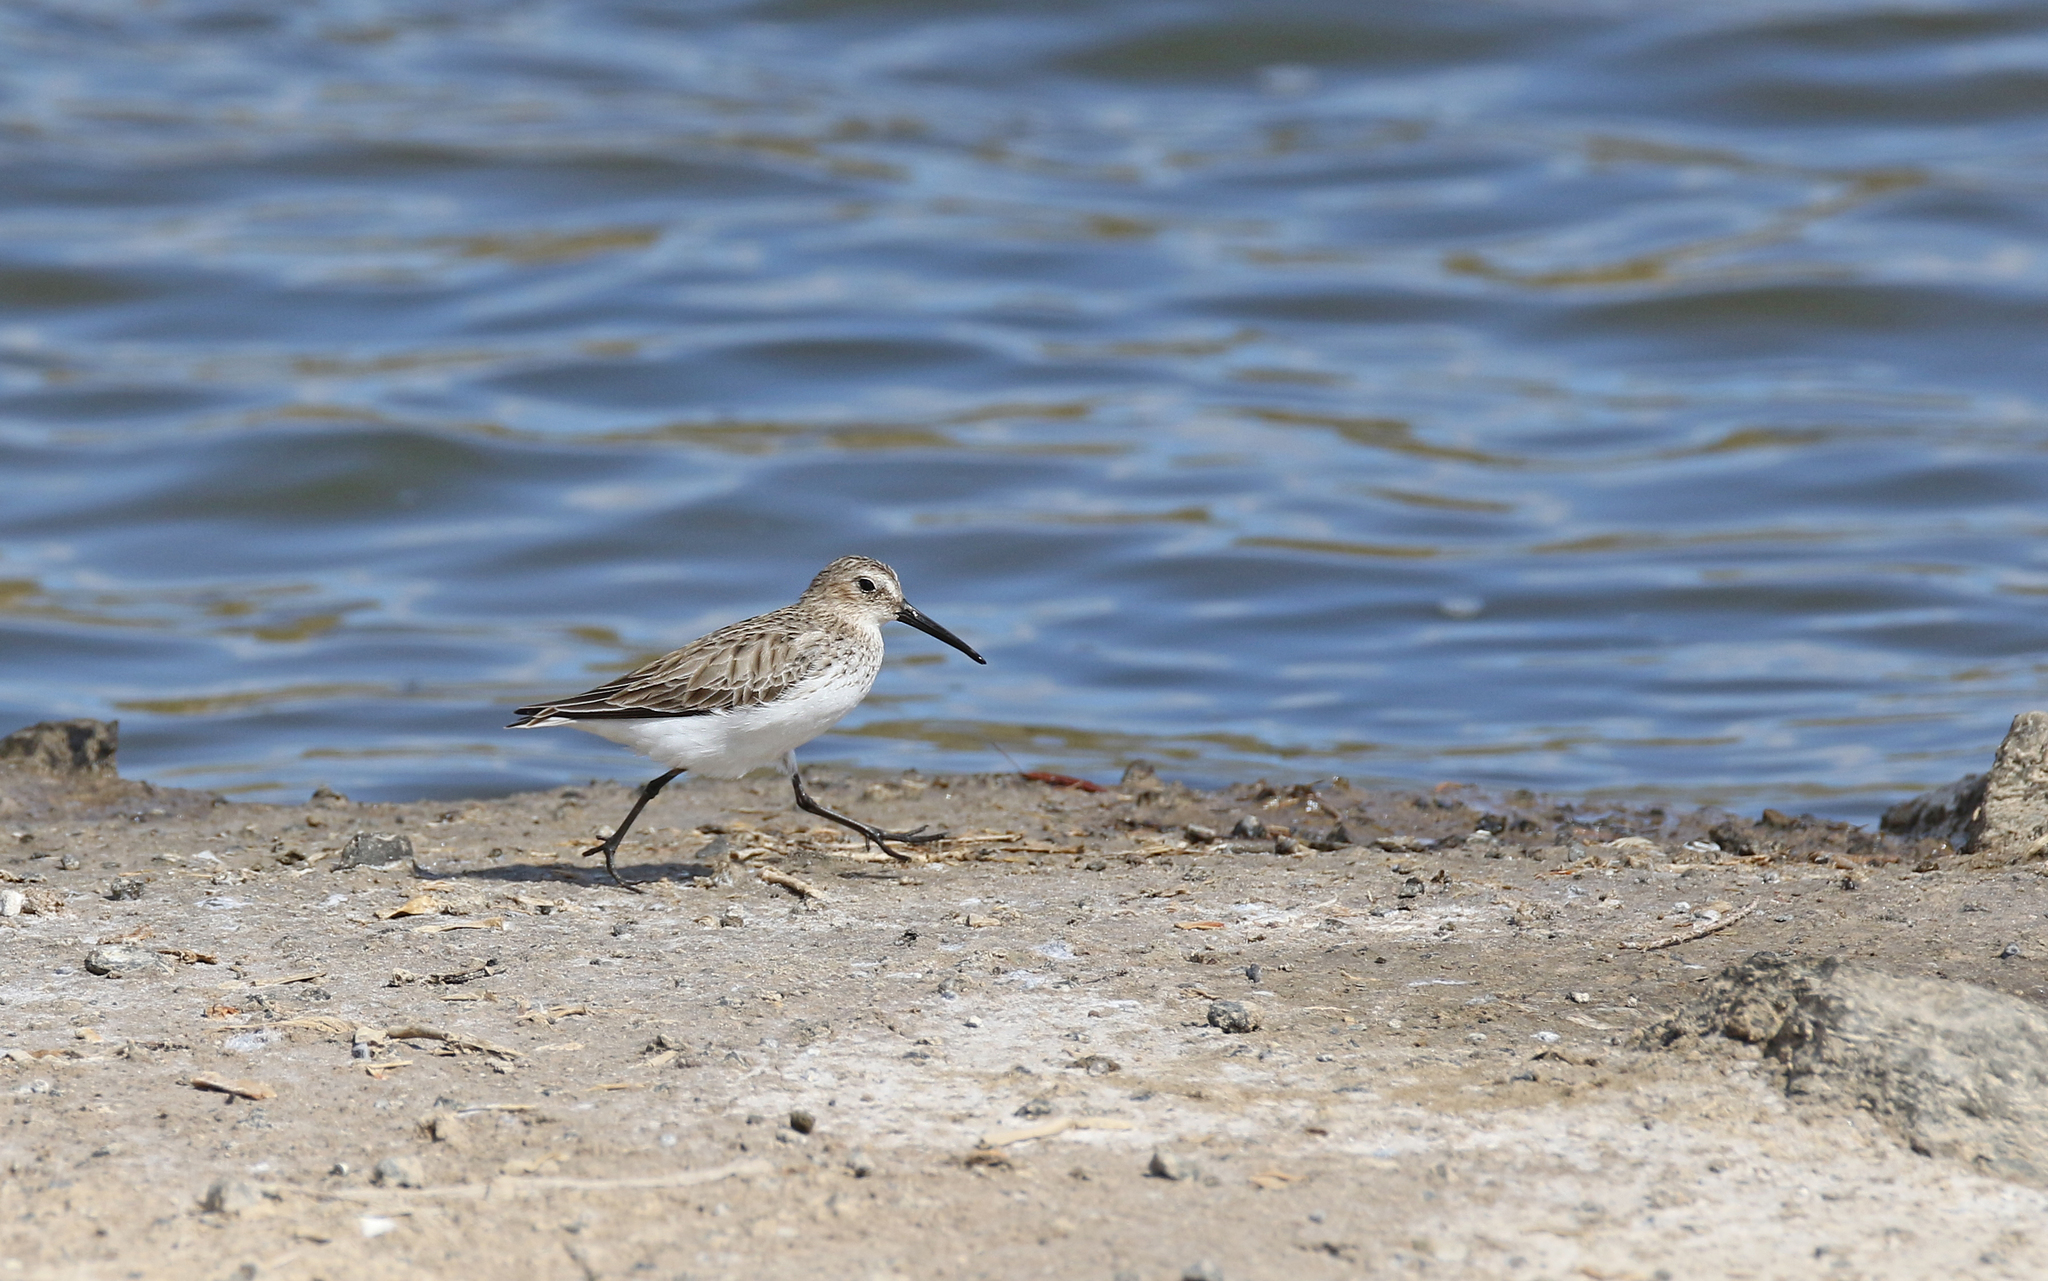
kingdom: Animalia
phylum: Chordata
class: Aves
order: Charadriiformes
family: Scolopacidae
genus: Calidris
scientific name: Calidris alpina
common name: Dunlin
